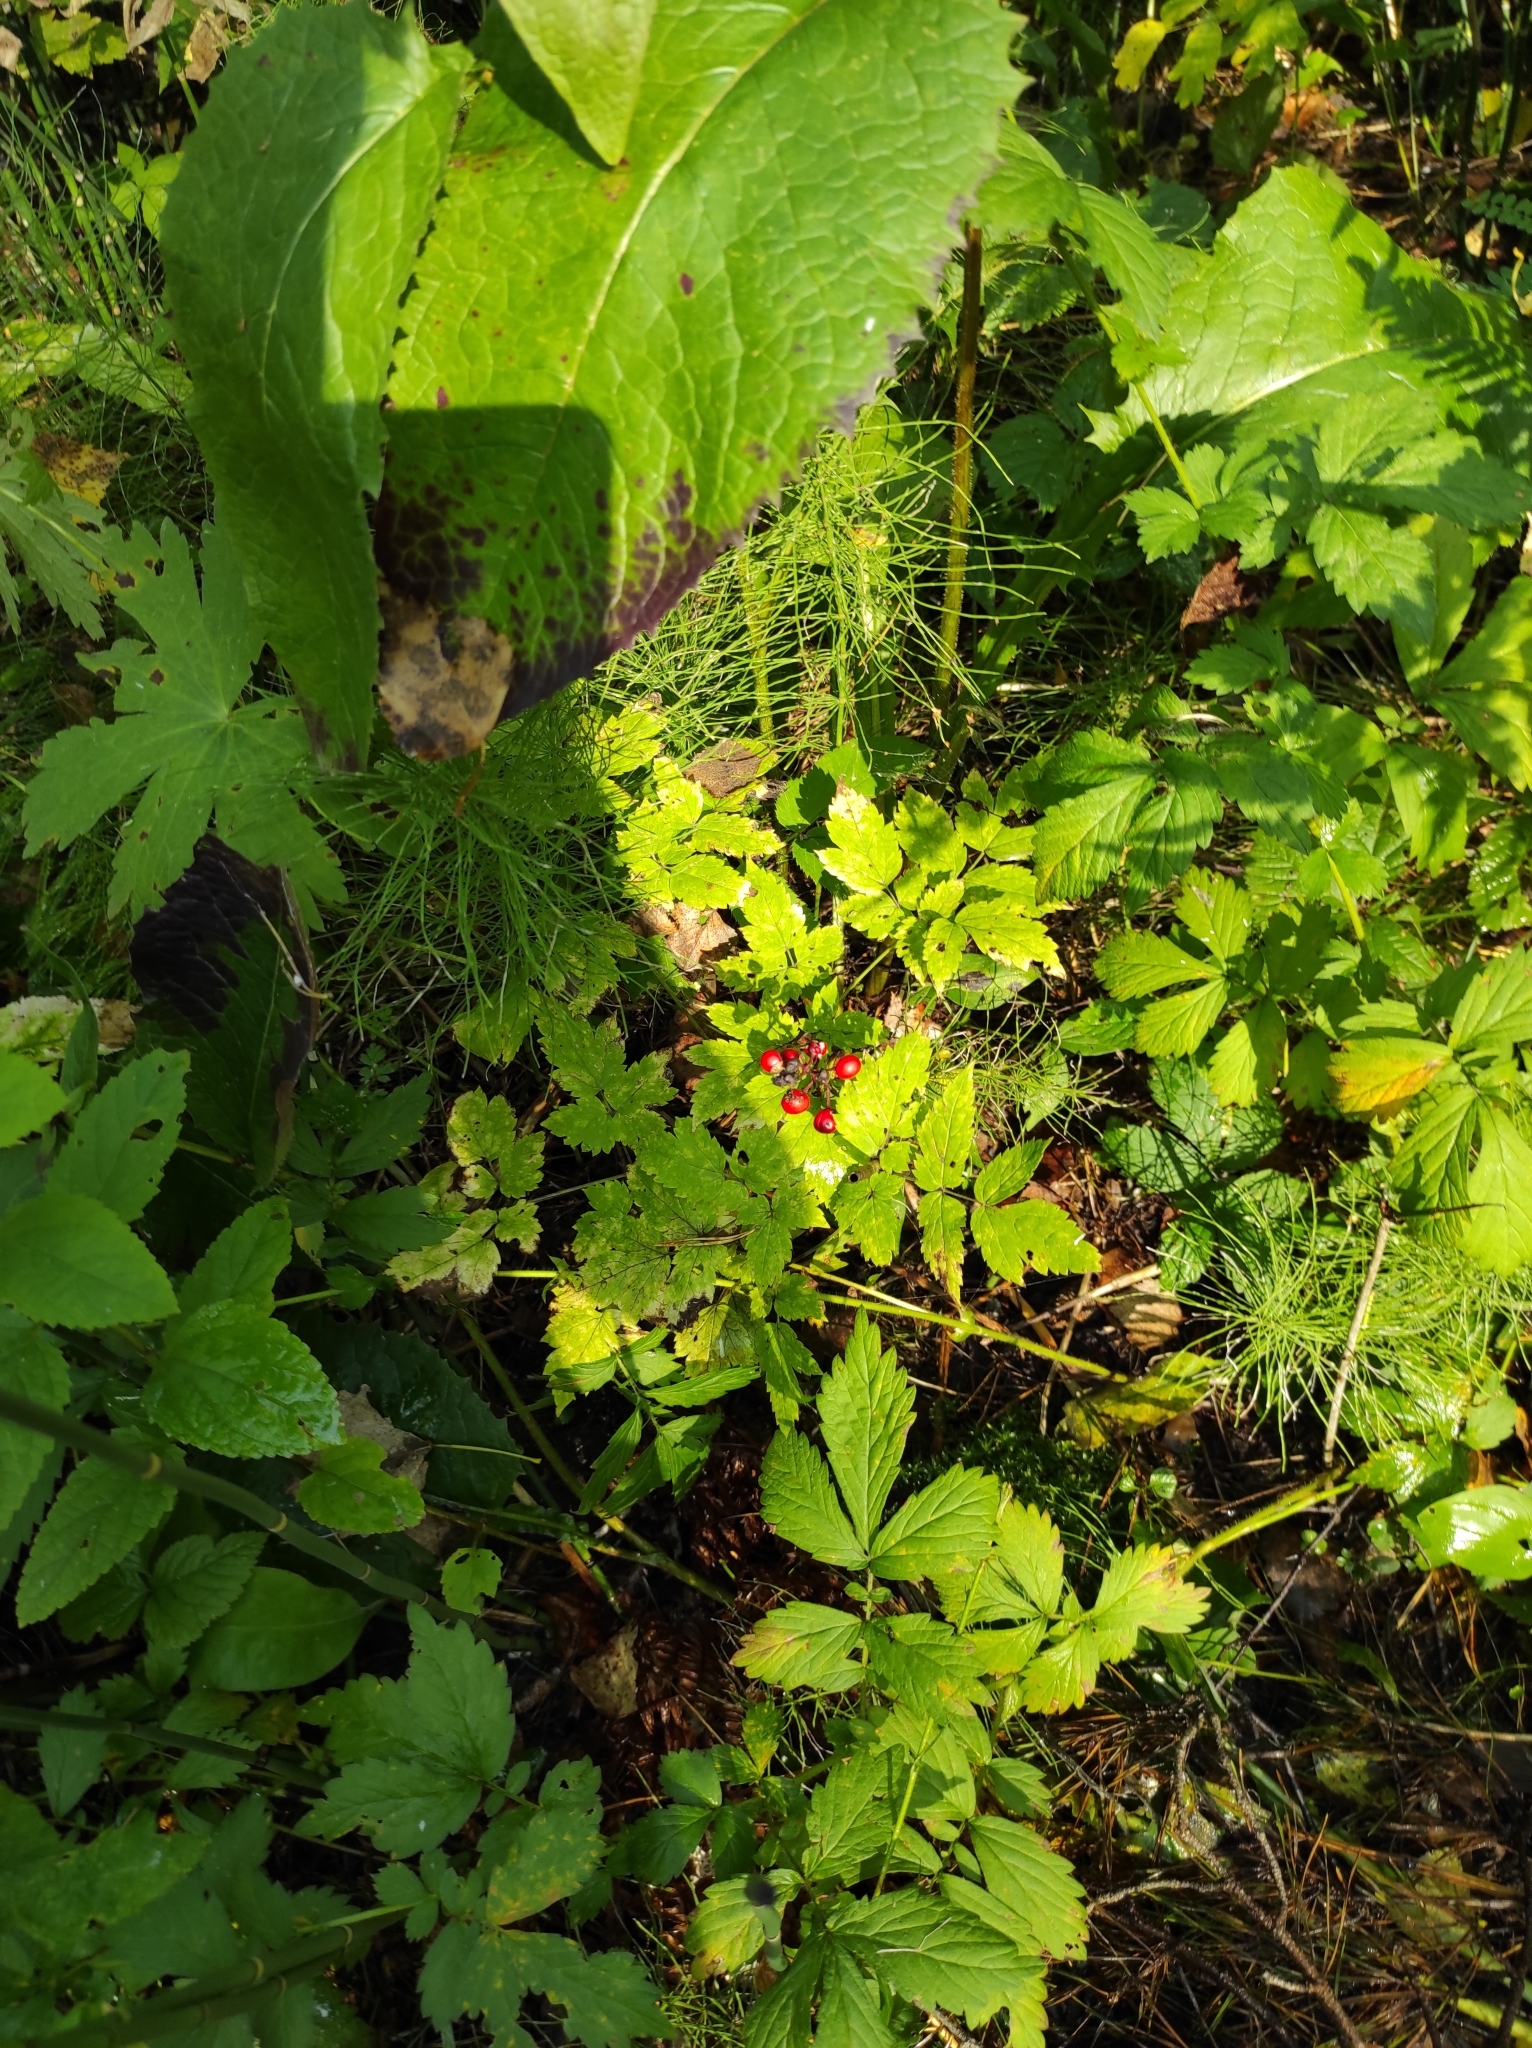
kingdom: Plantae
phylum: Tracheophyta
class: Magnoliopsida
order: Ranunculales
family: Ranunculaceae
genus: Actaea
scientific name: Actaea erythrocarpa
